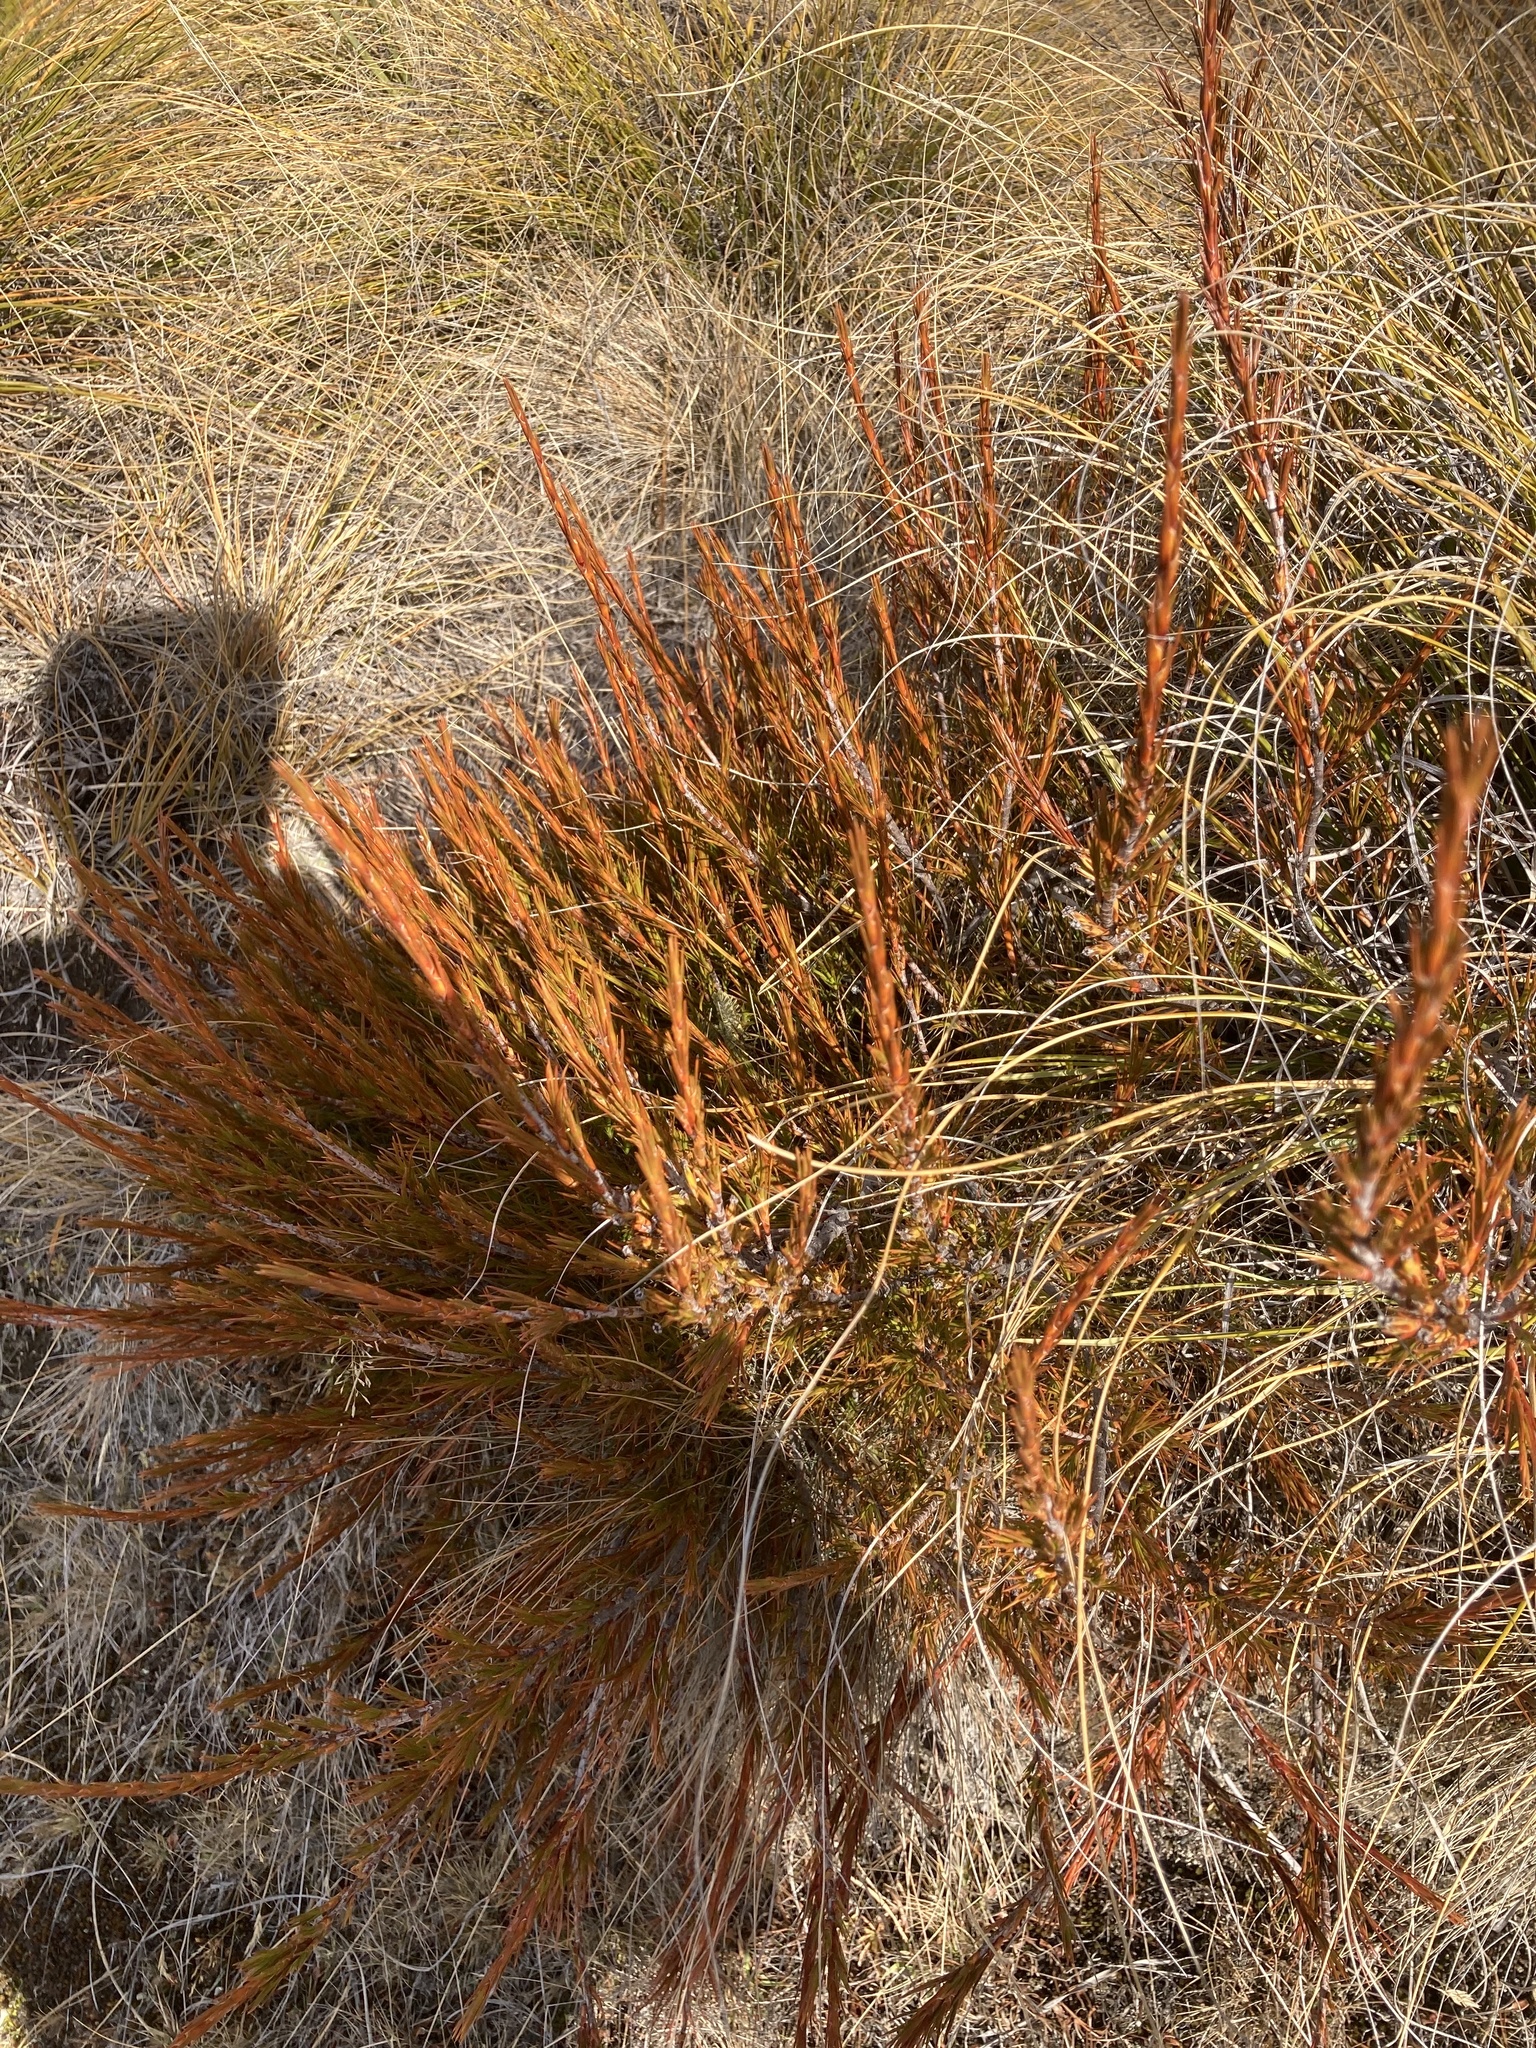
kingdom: Plantae
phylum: Tracheophyta
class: Magnoliopsida
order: Ericales
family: Ericaceae
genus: Dracophyllum
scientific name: Dracophyllum rosmarinifolium
